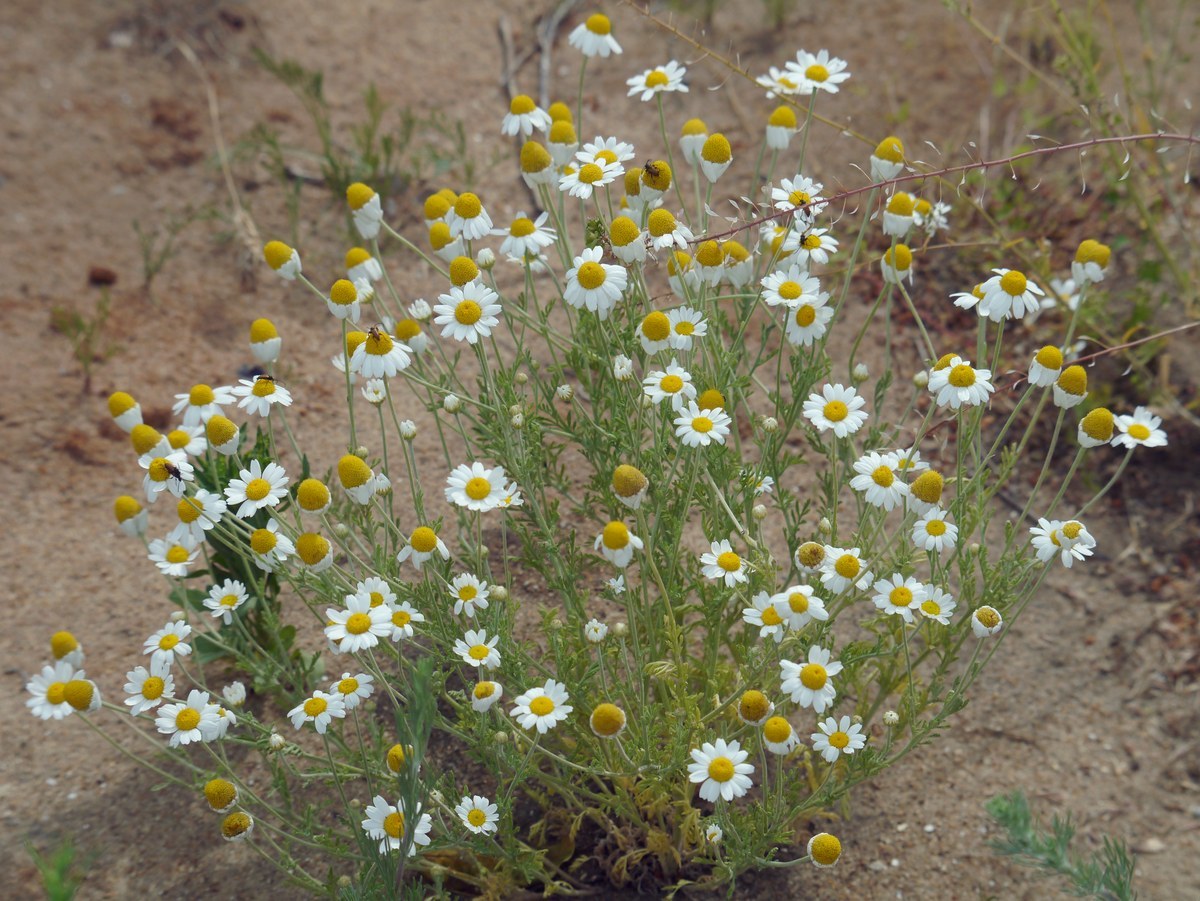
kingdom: Plantae
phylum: Tracheophyta
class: Magnoliopsida
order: Asterales
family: Asteraceae
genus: Anthemis
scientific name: Anthemis ruthenica
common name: Eastern chamomile
